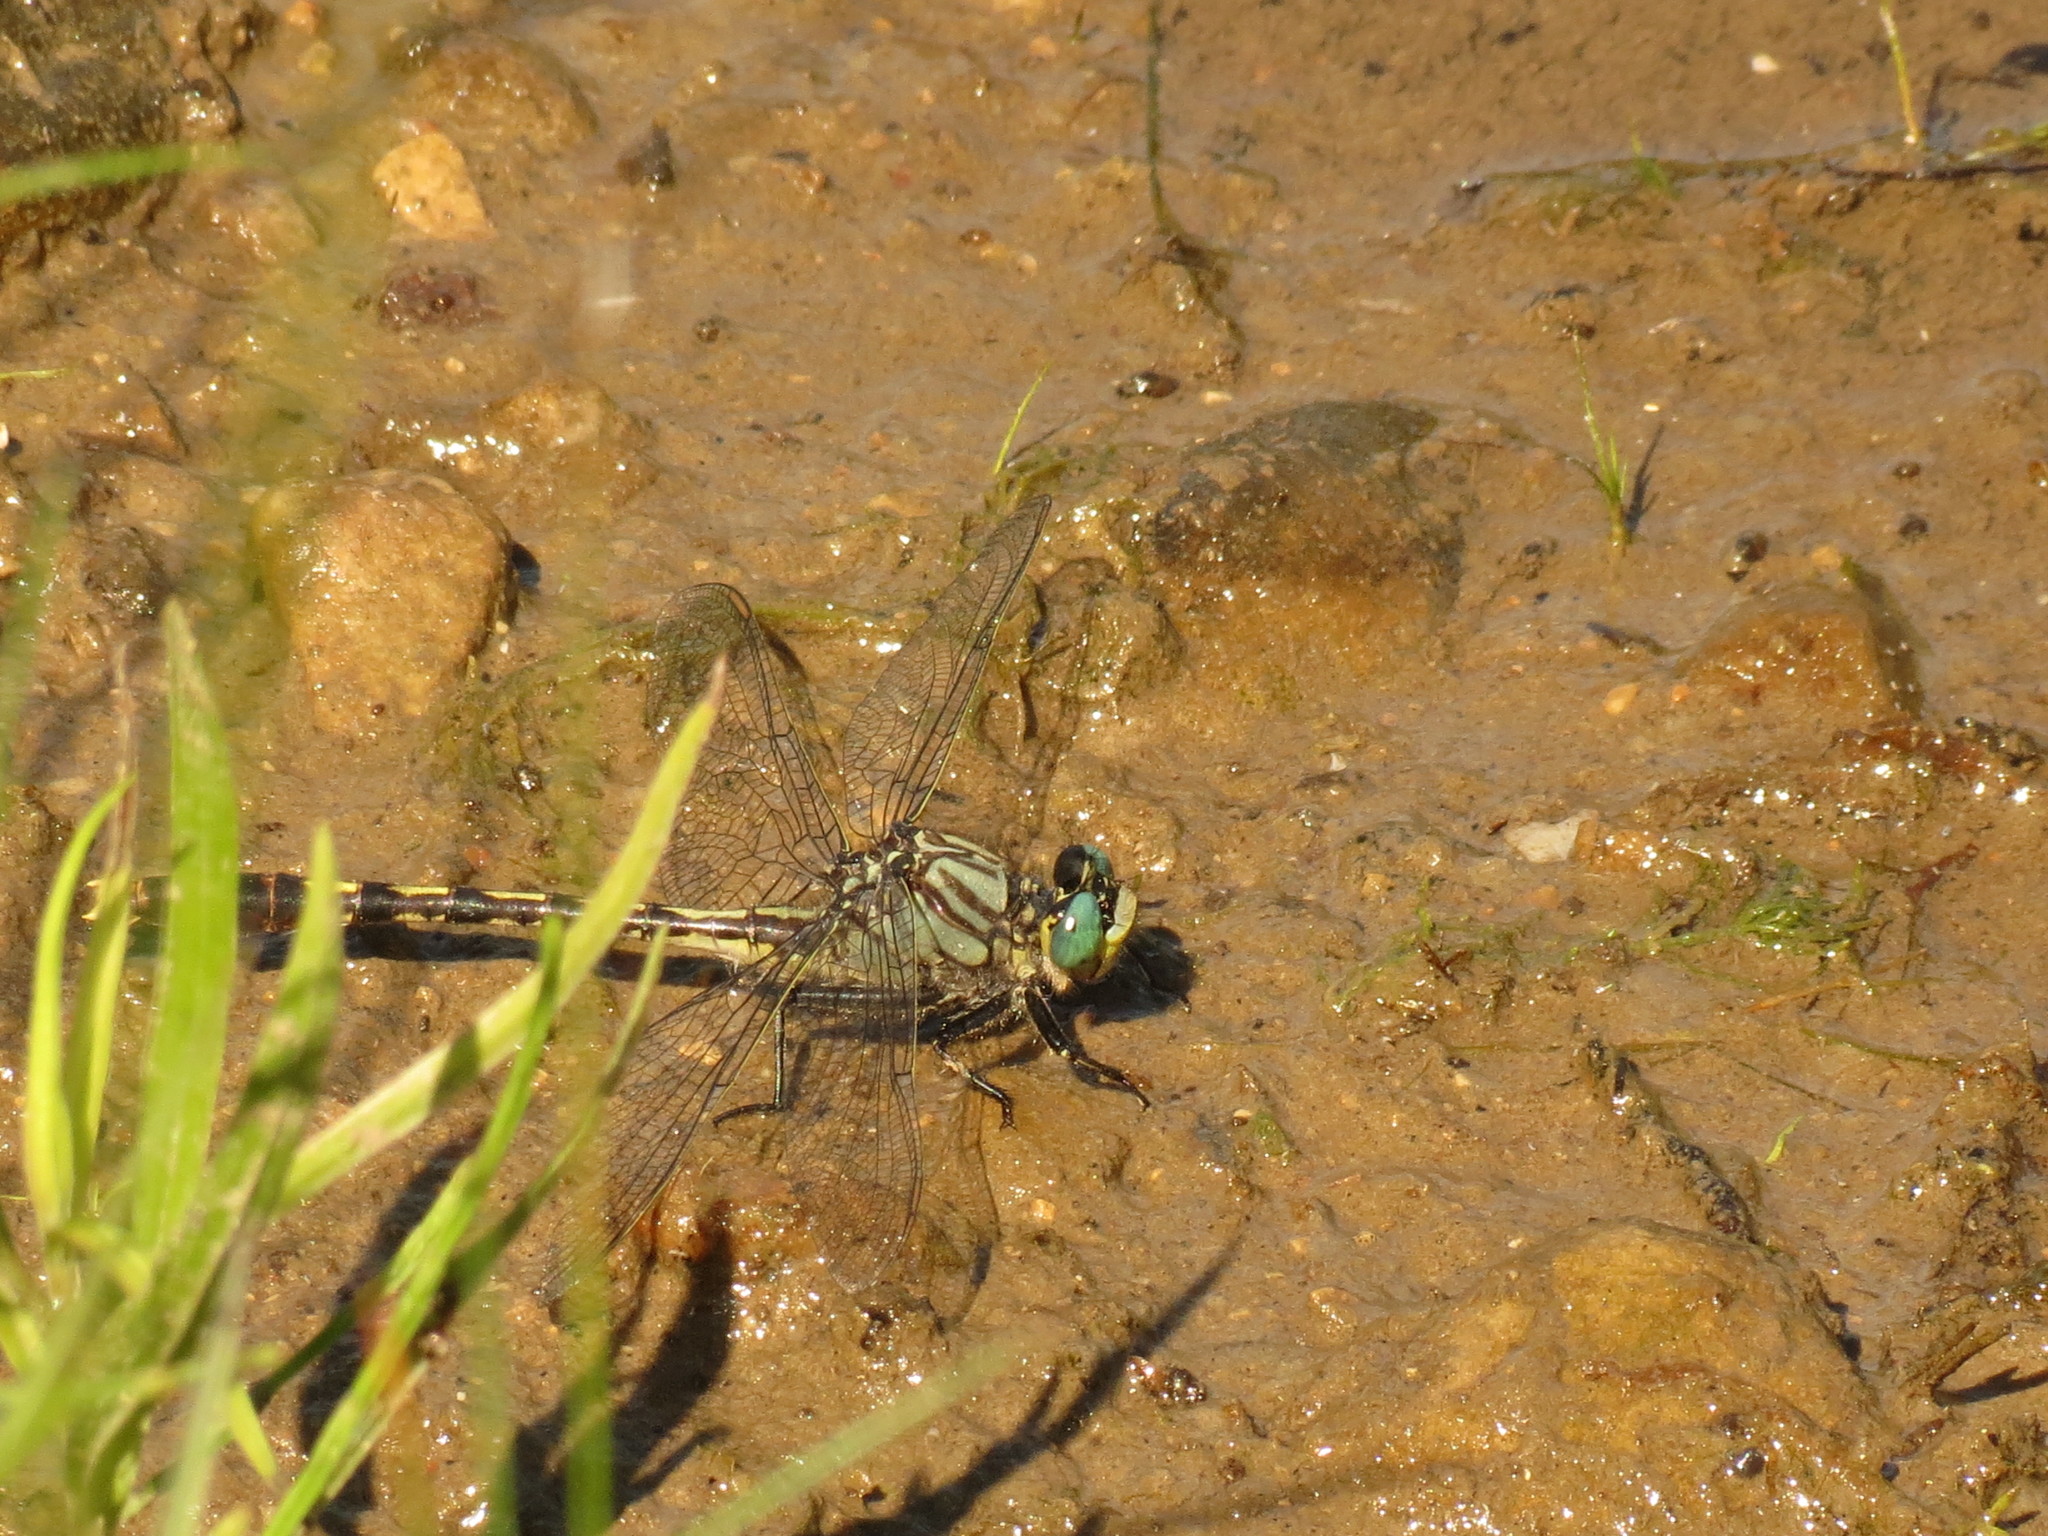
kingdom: Animalia
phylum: Arthropoda
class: Insecta
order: Odonata
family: Gomphidae
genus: Arigomphus
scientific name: Arigomphus villosipes
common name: Unicorn clubtail
